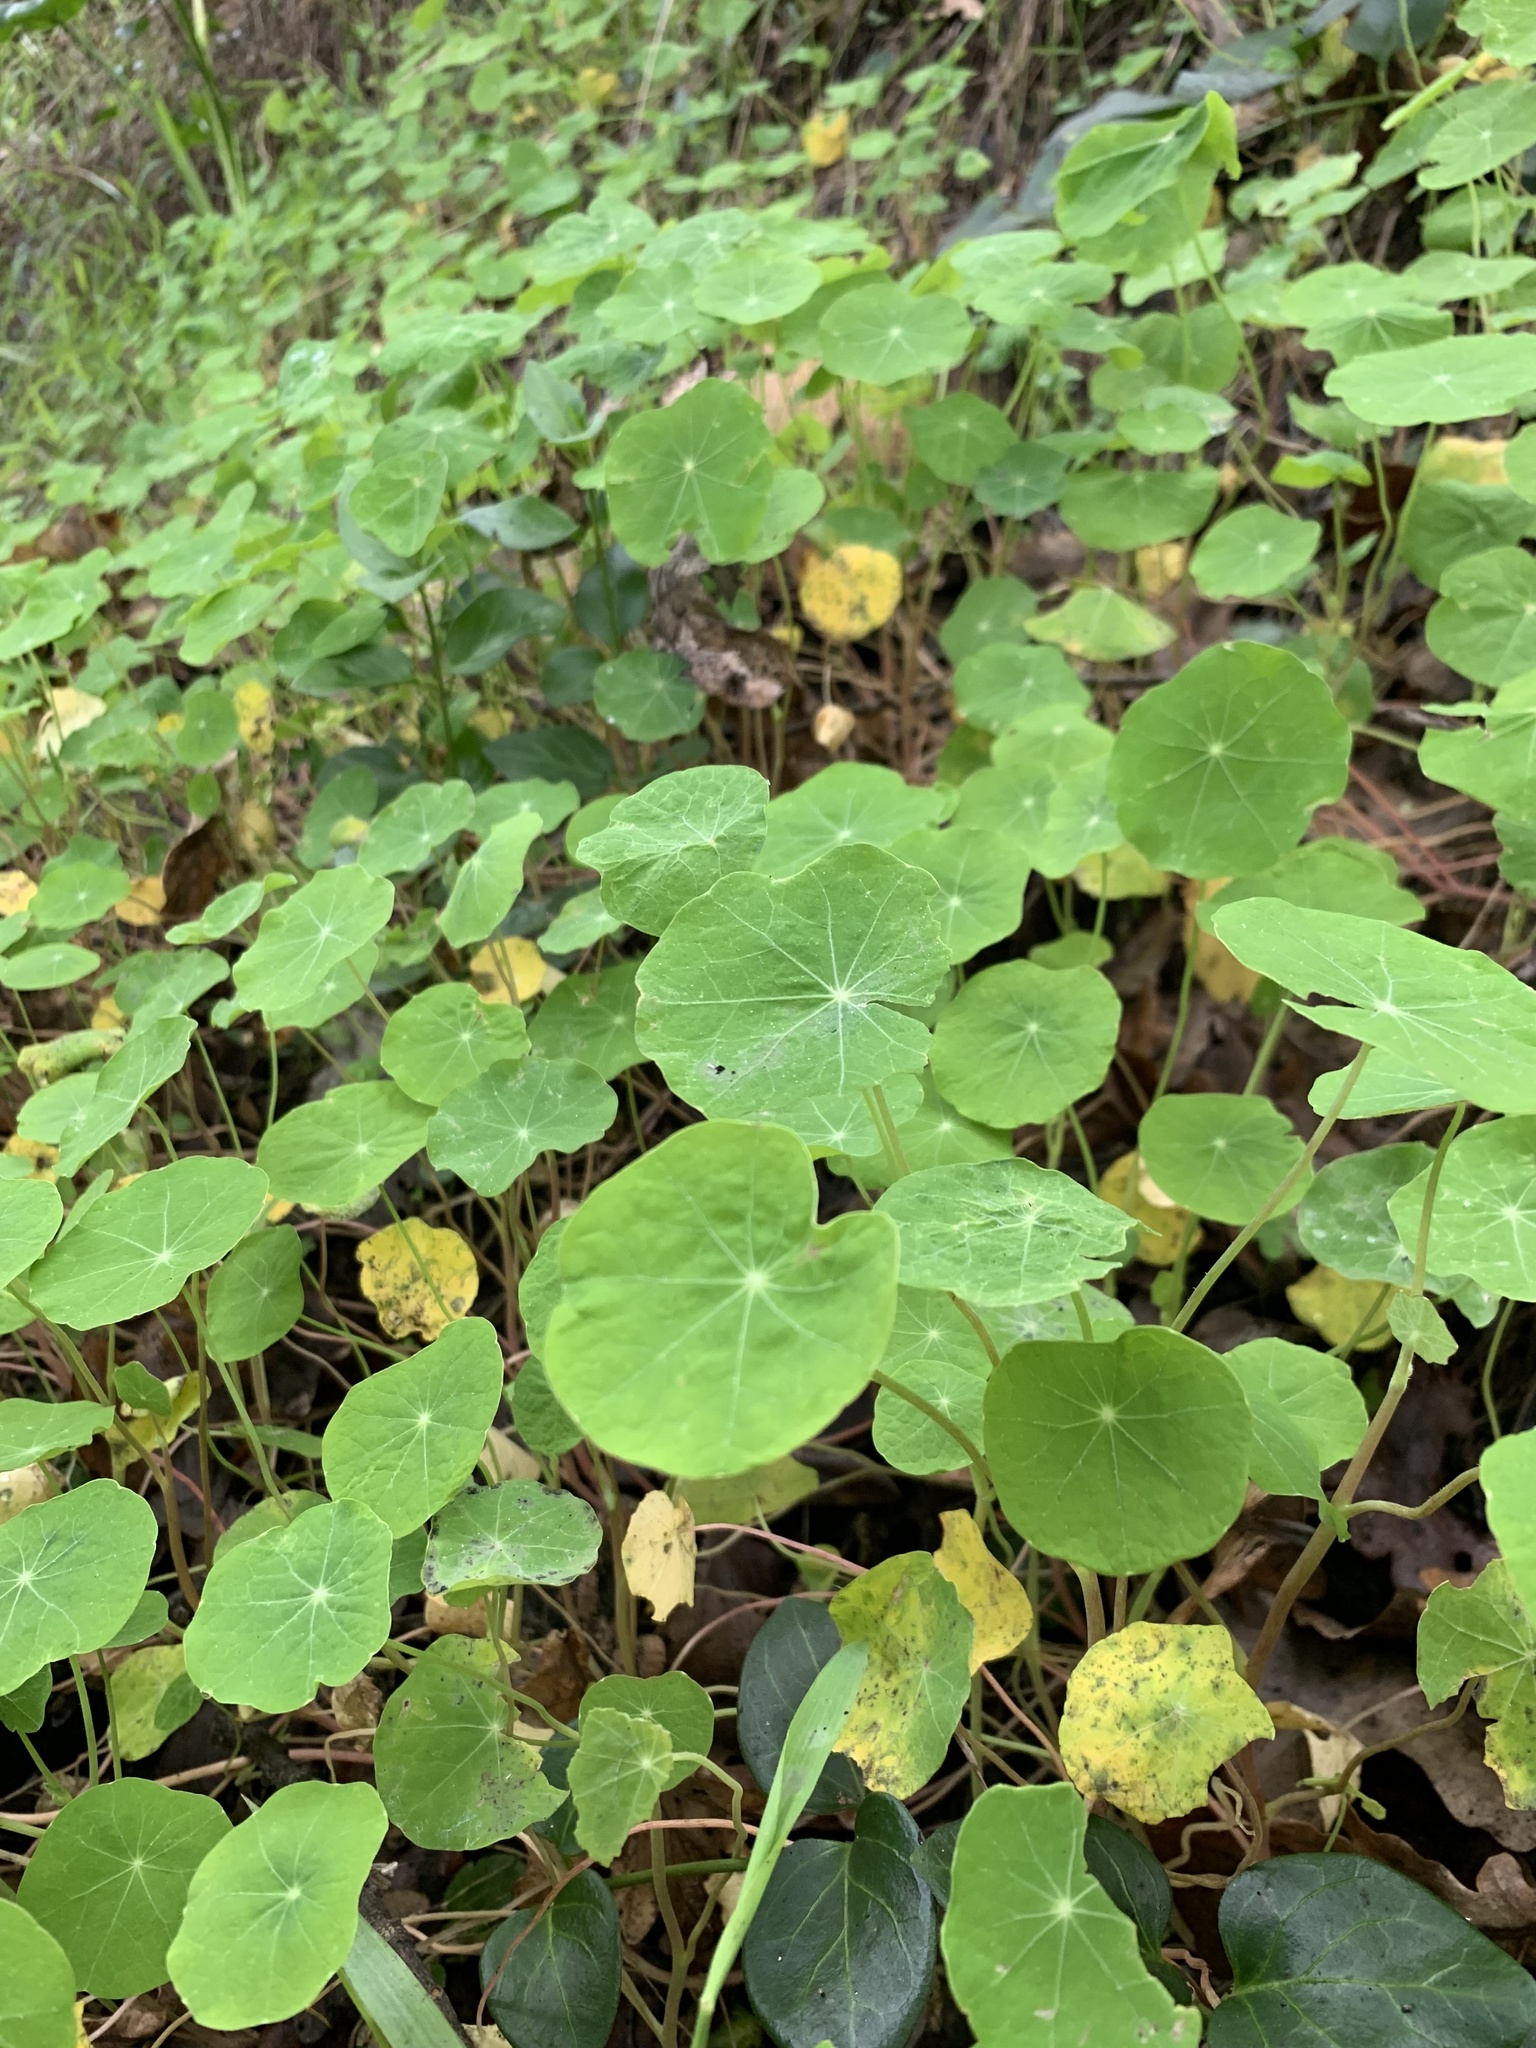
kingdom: Plantae
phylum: Tracheophyta
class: Magnoliopsida
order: Brassicales
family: Tropaeolaceae
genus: Tropaeolum
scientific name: Tropaeolum majus
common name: Nasturtium
